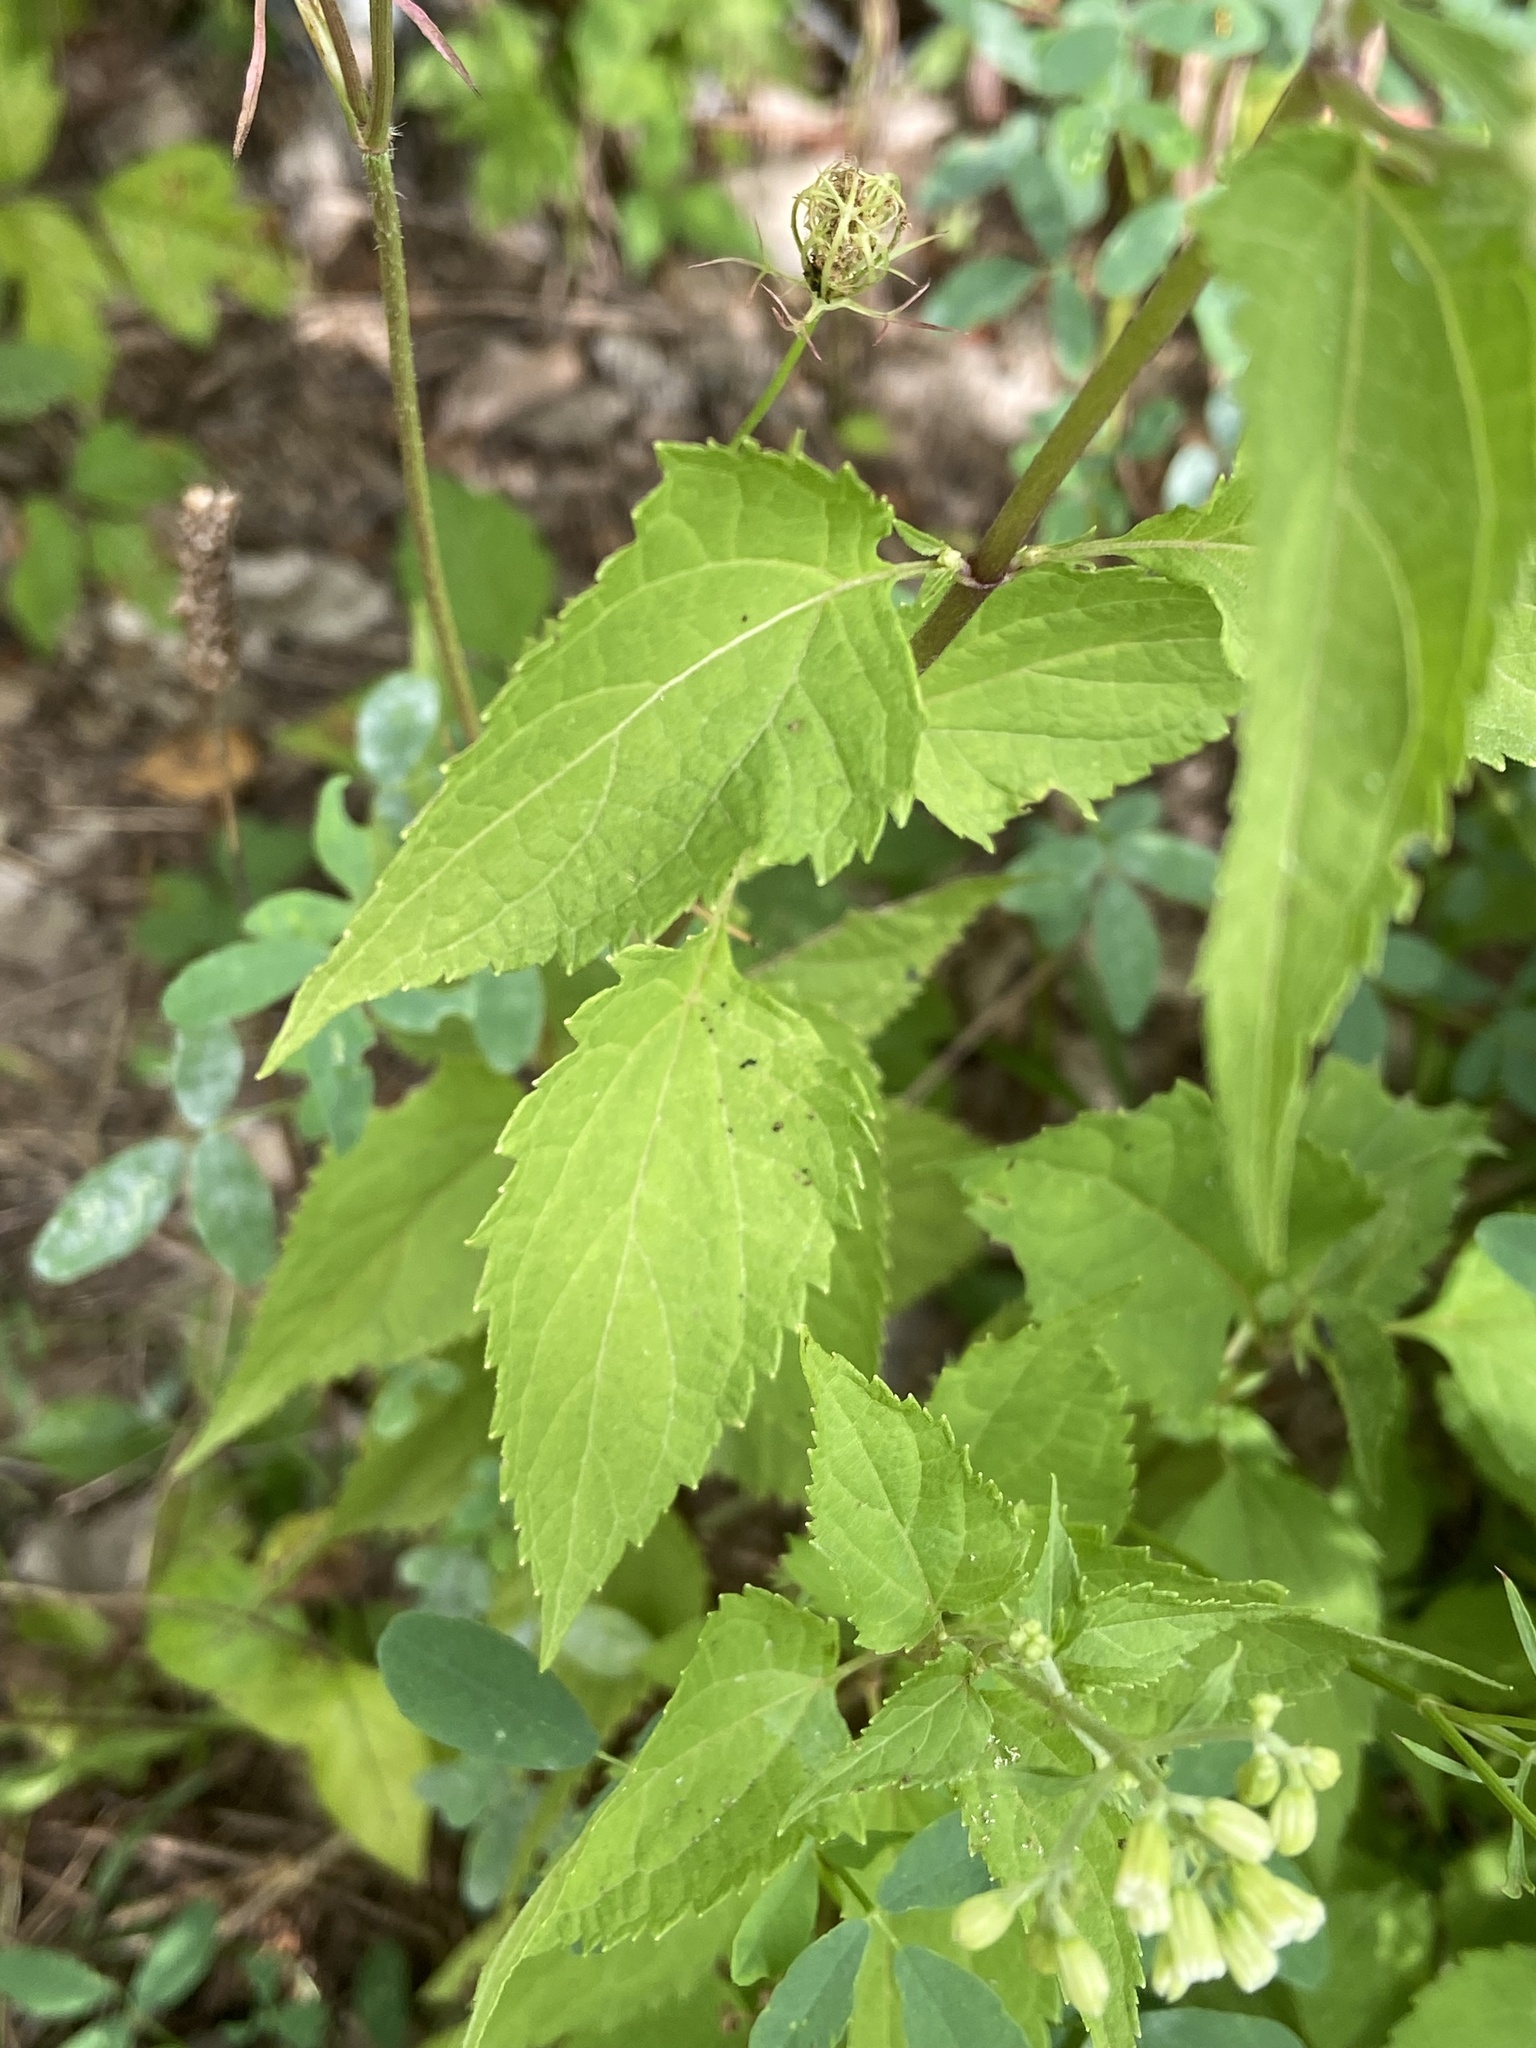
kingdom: Plantae
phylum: Tracheophyta
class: Magnoliopsida
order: Asterales
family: Asteraceae
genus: Ageratina
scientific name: Ageratina altissima
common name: White snakeroot
